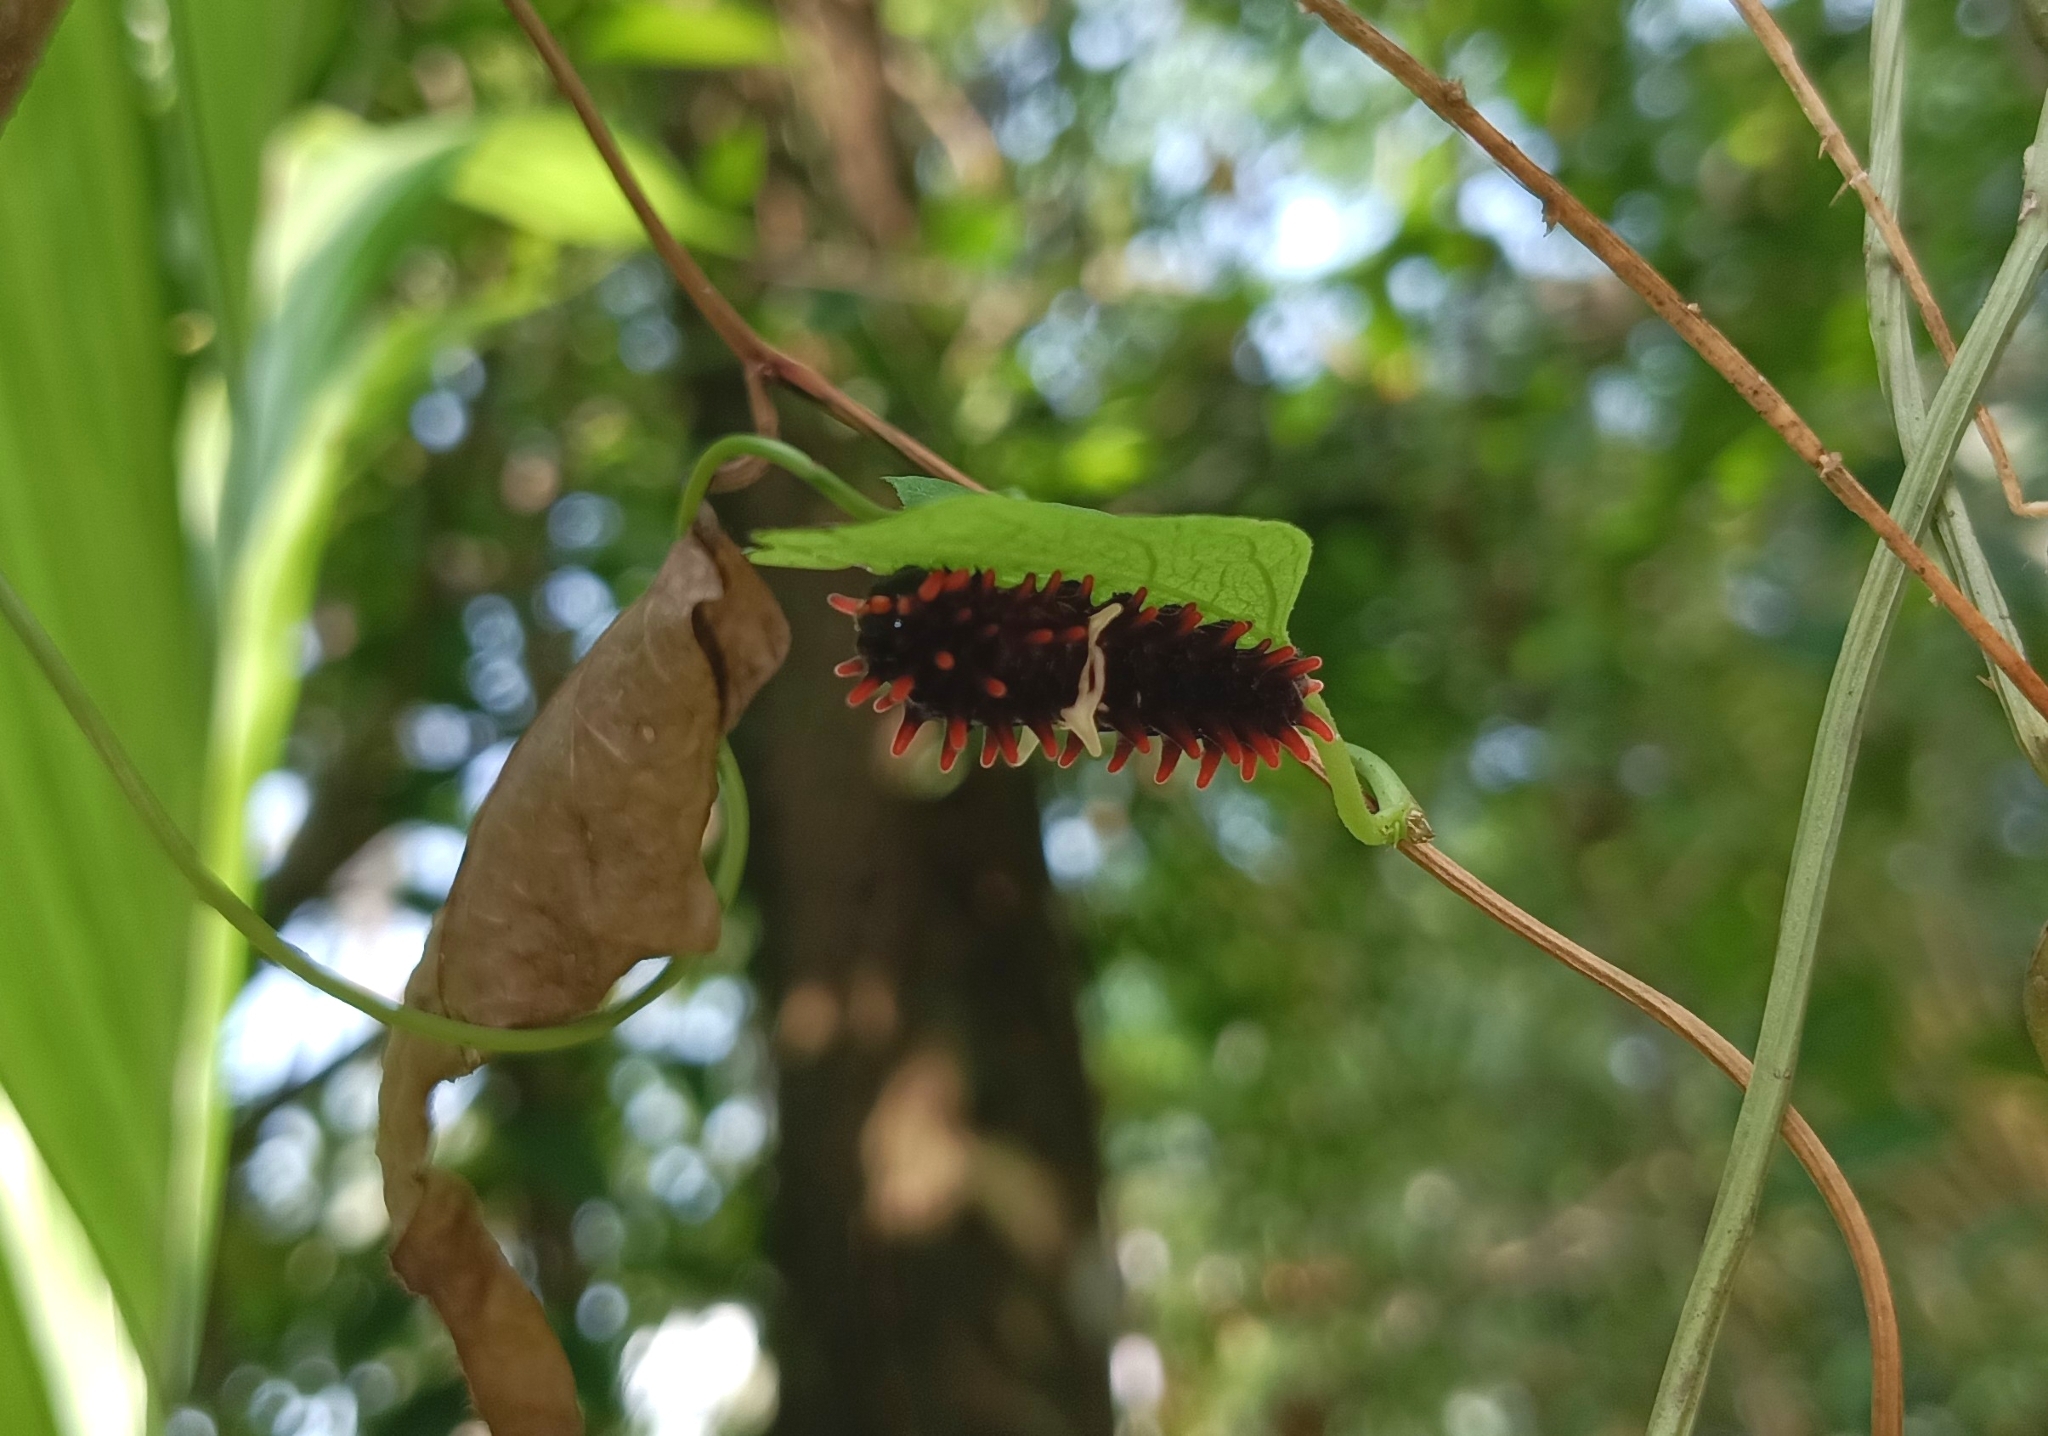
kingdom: Animalia
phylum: Arthropoda
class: Insecta
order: Lepidoptera
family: Papilionidae
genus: Pachliopta
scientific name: Pachliopta aristolochiae
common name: Common rose
